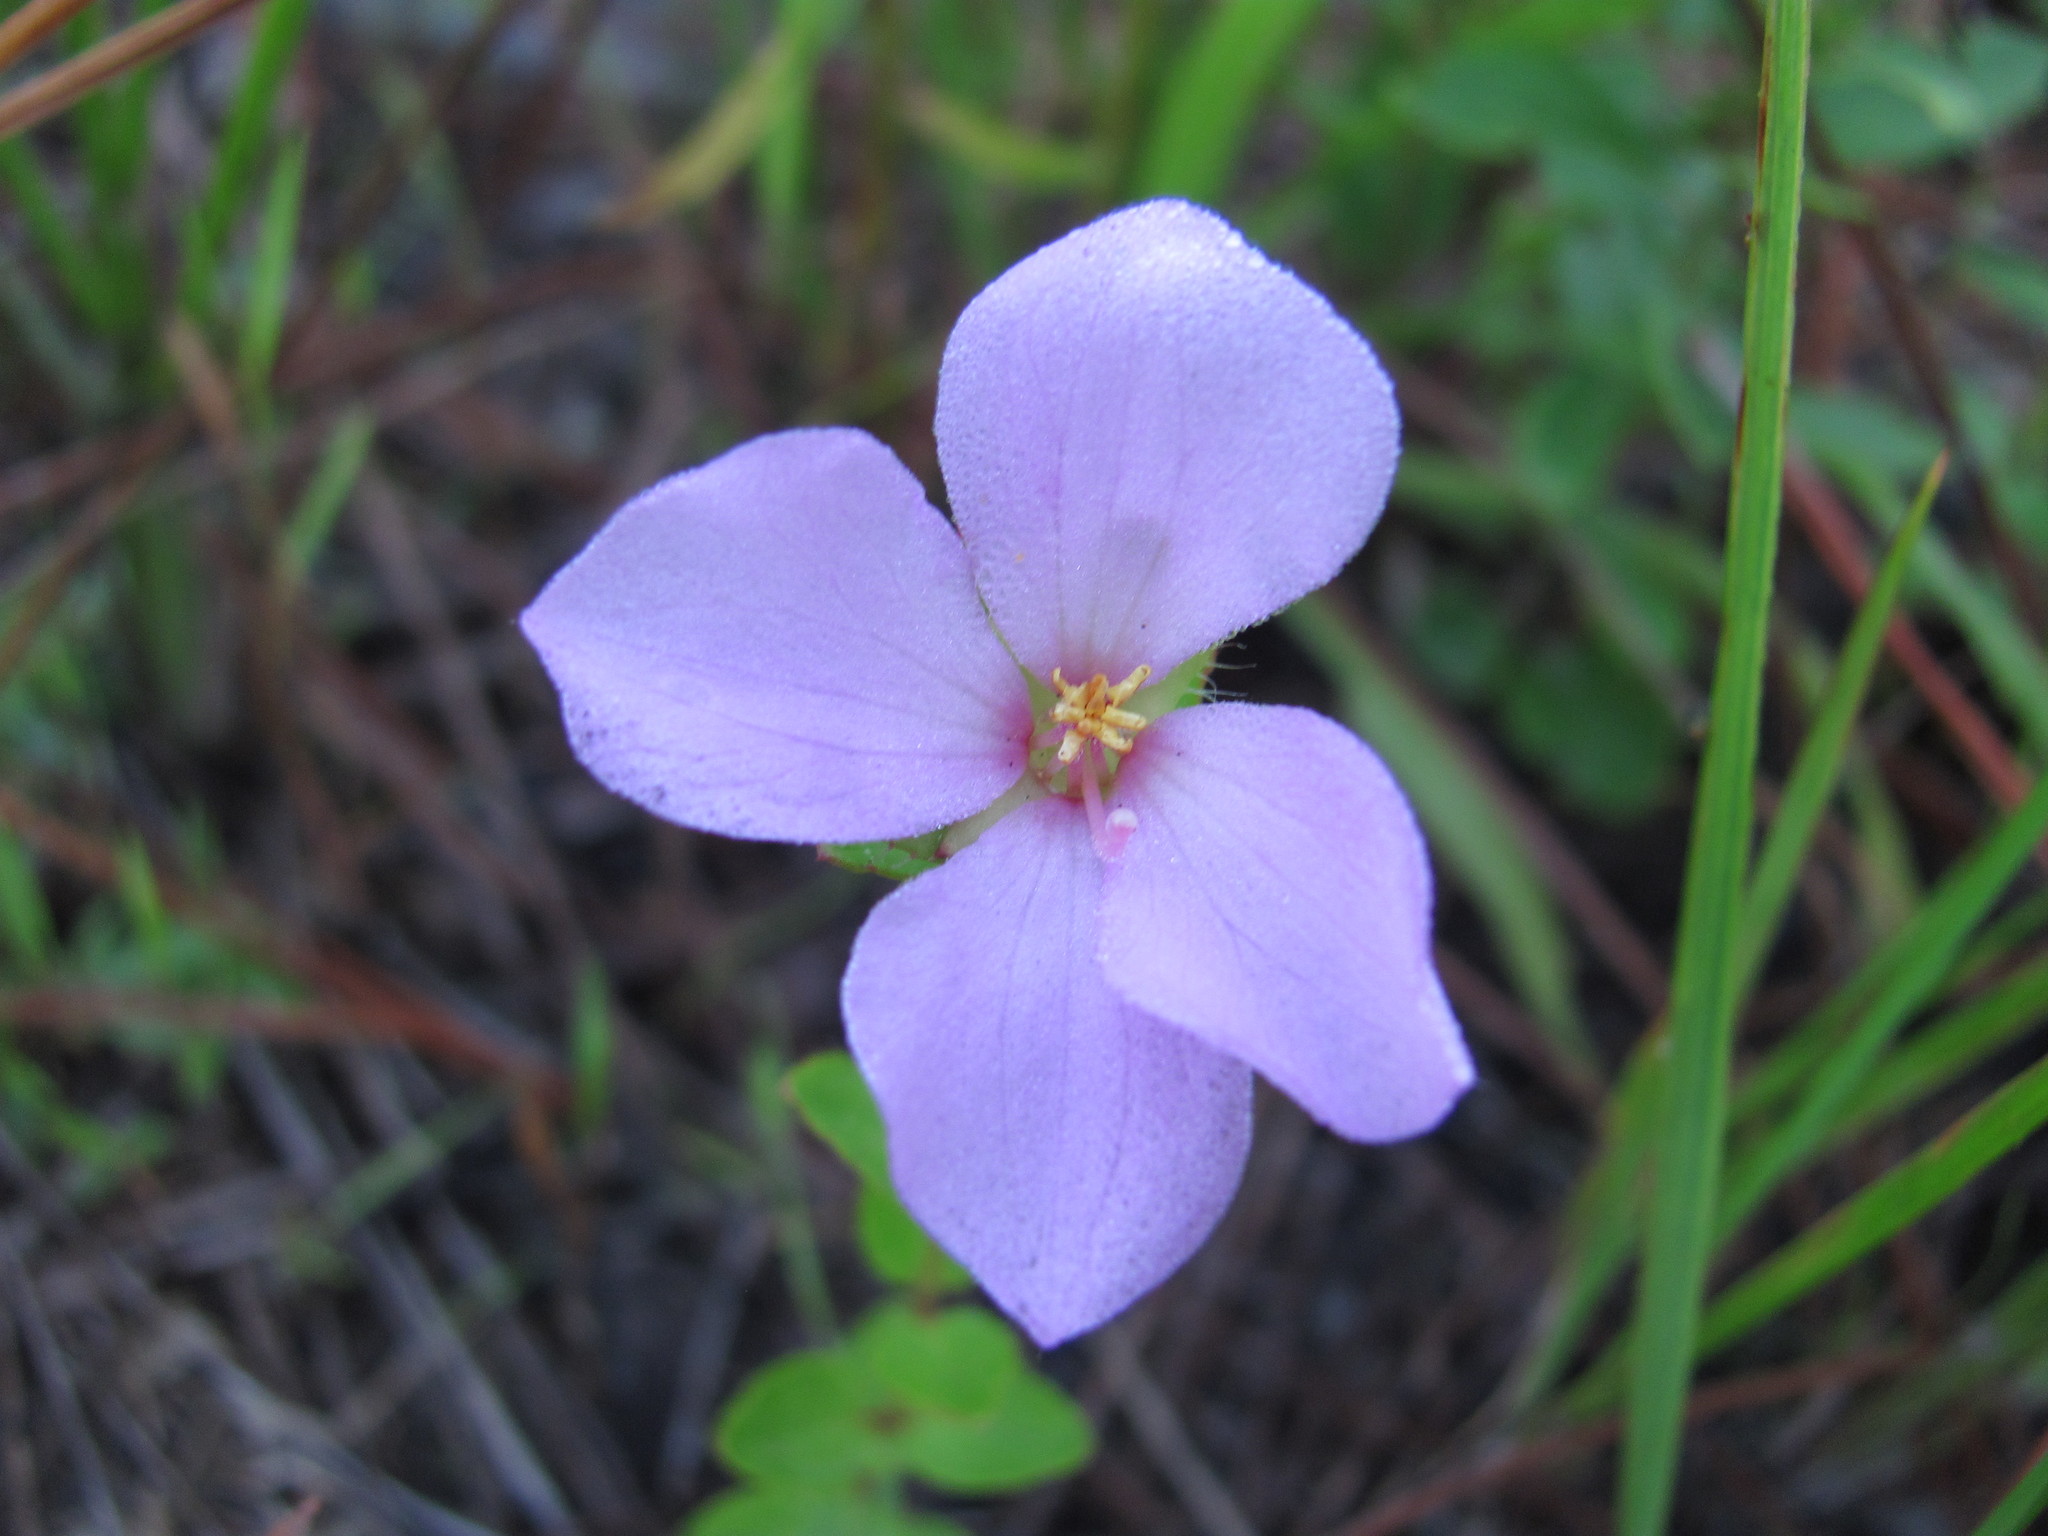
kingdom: Plantae
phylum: Tracheophyta
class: Magnoliopsida
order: Myrtales
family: Melastomataceae
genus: Rhexia
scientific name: Rhexia petiolata
